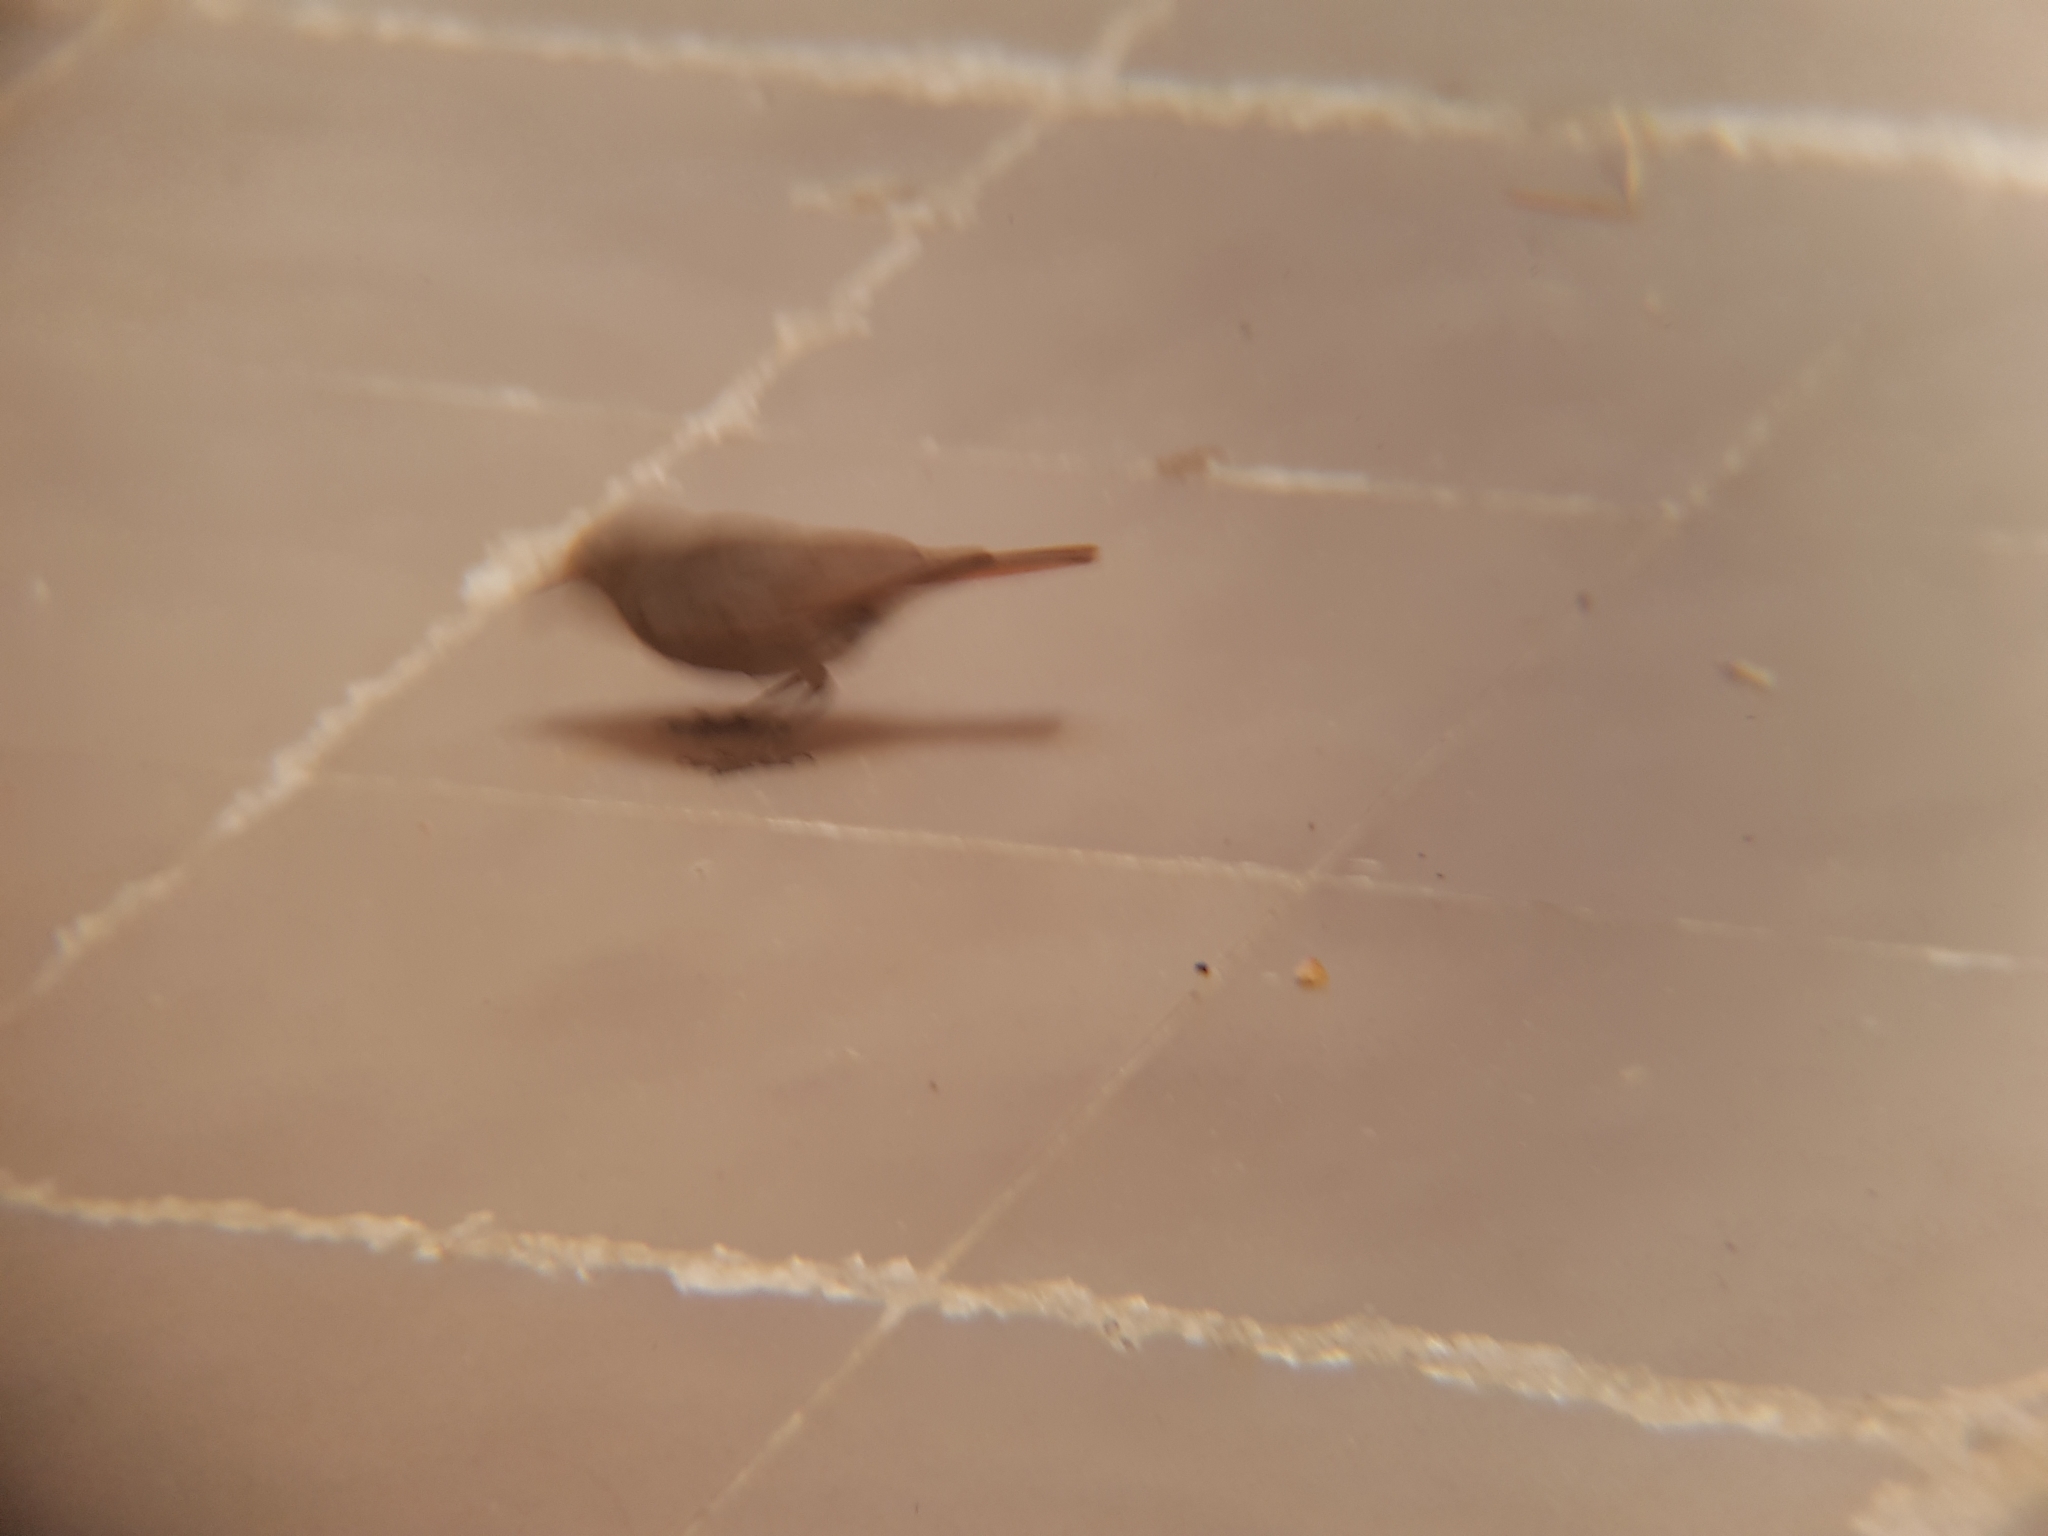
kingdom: Animalia
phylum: Chordata
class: Aves
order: Passeriformes
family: Muscicapidae
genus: Phoenicurus
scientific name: Phoenicurus ochruros
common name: Black redstart
